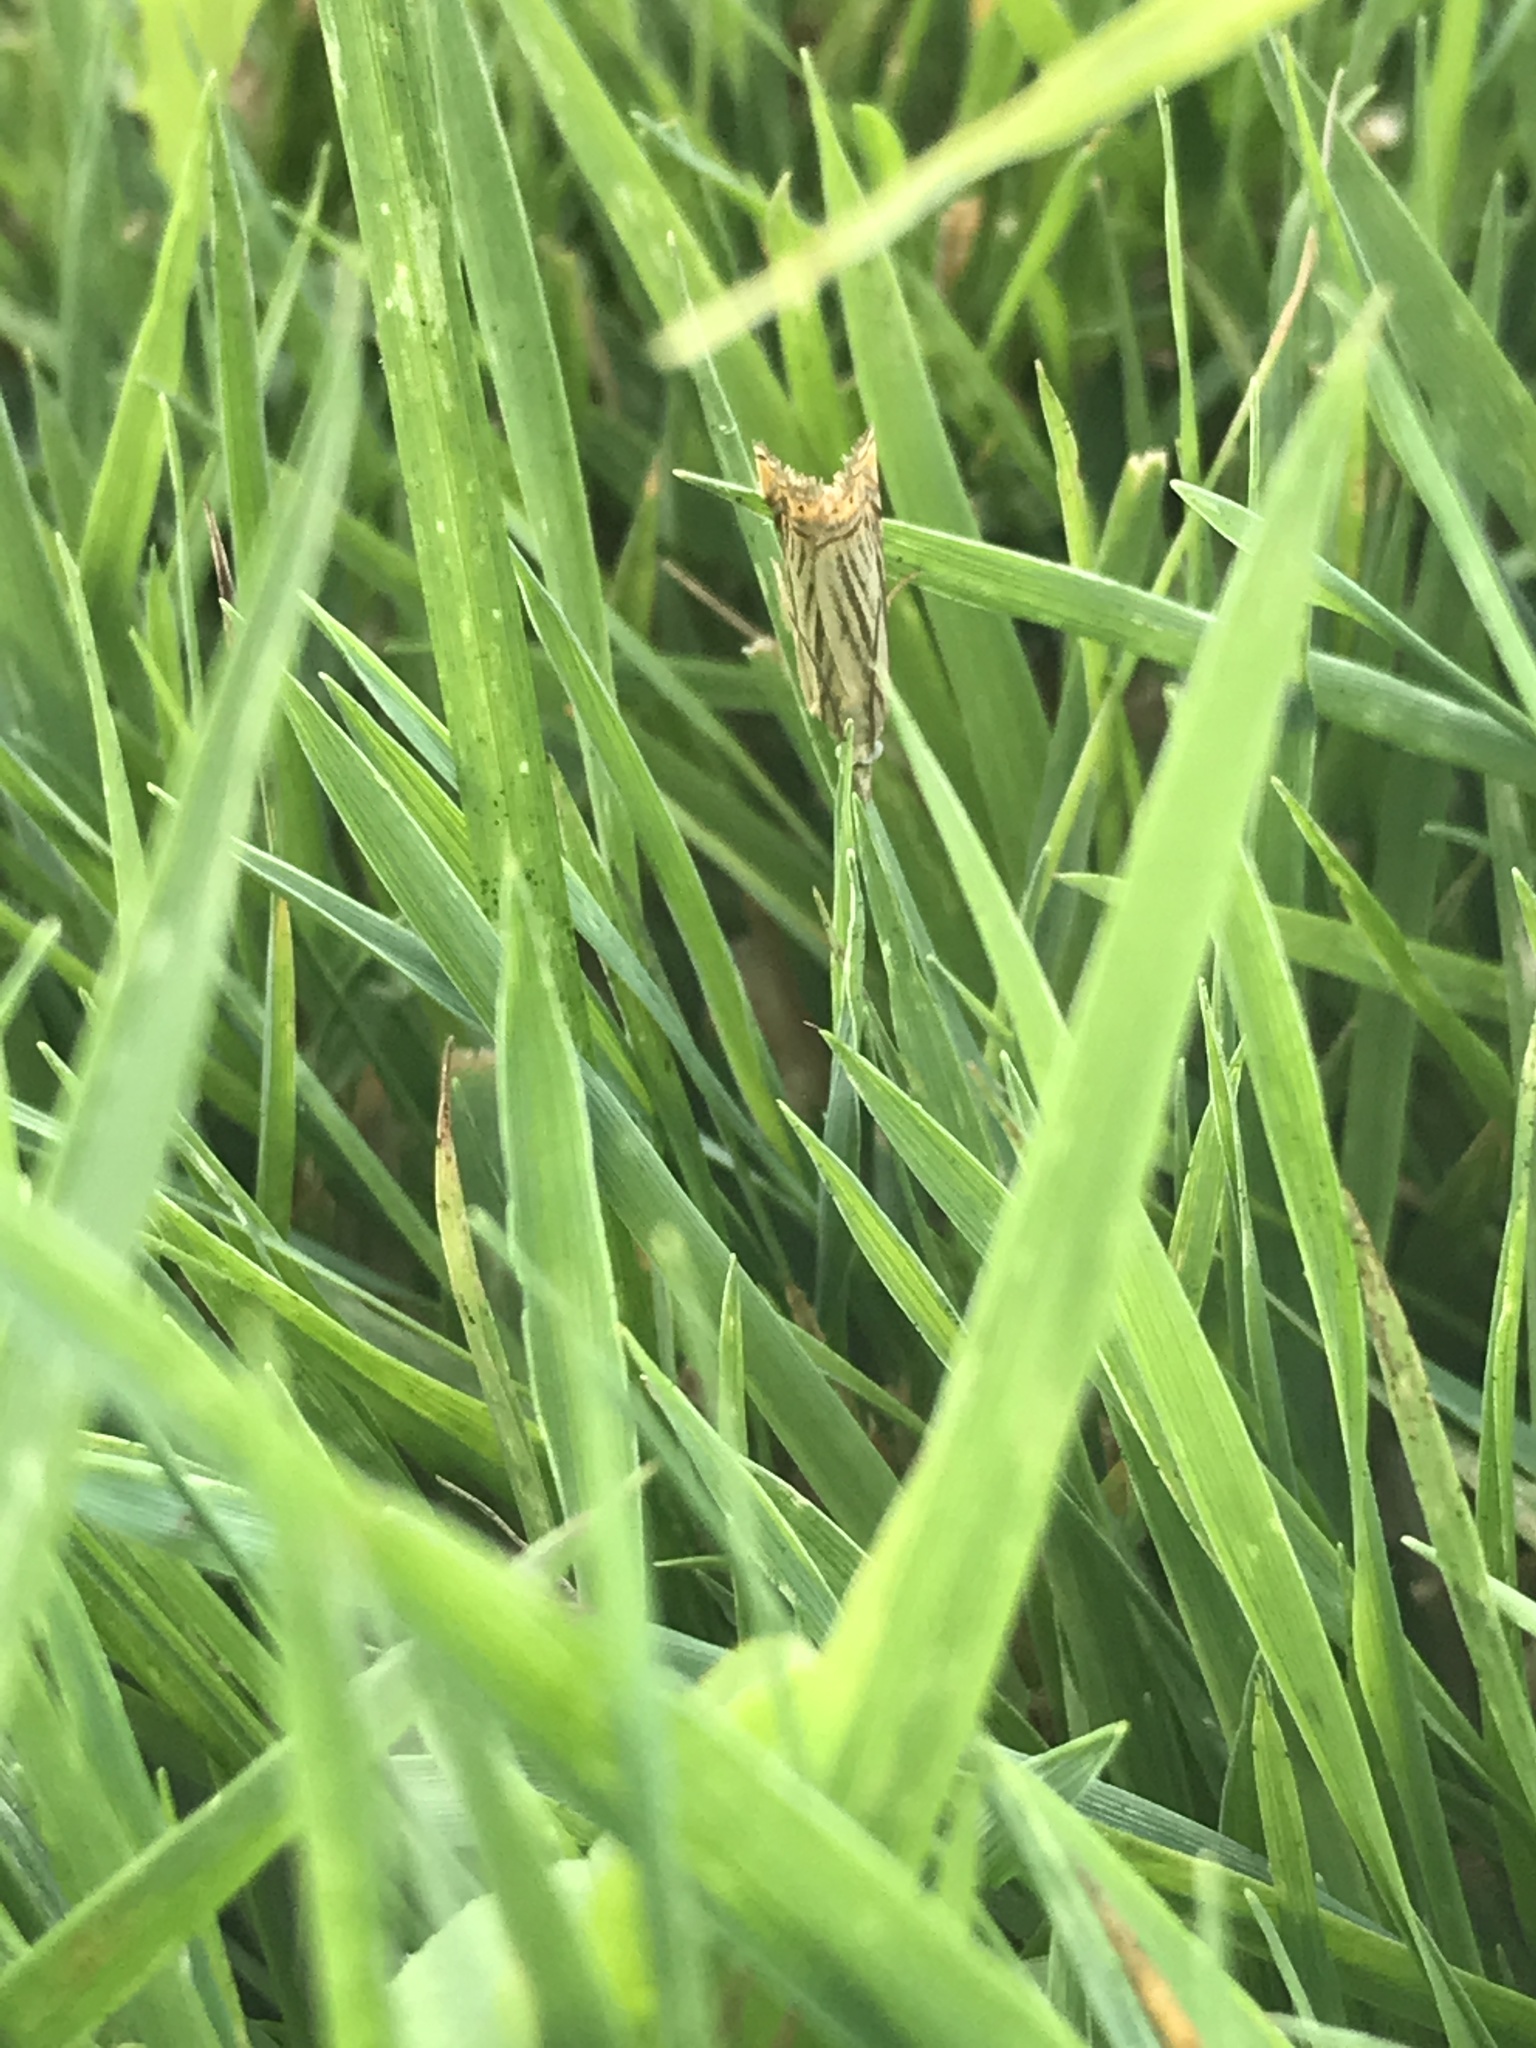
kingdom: Animalia
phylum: Arthropoda
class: Insecta
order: Lepidoptera
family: Crambidae
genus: Chrysoteuchia
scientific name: Chrysoteuchia topiarius
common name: Topiary grass-veneer
